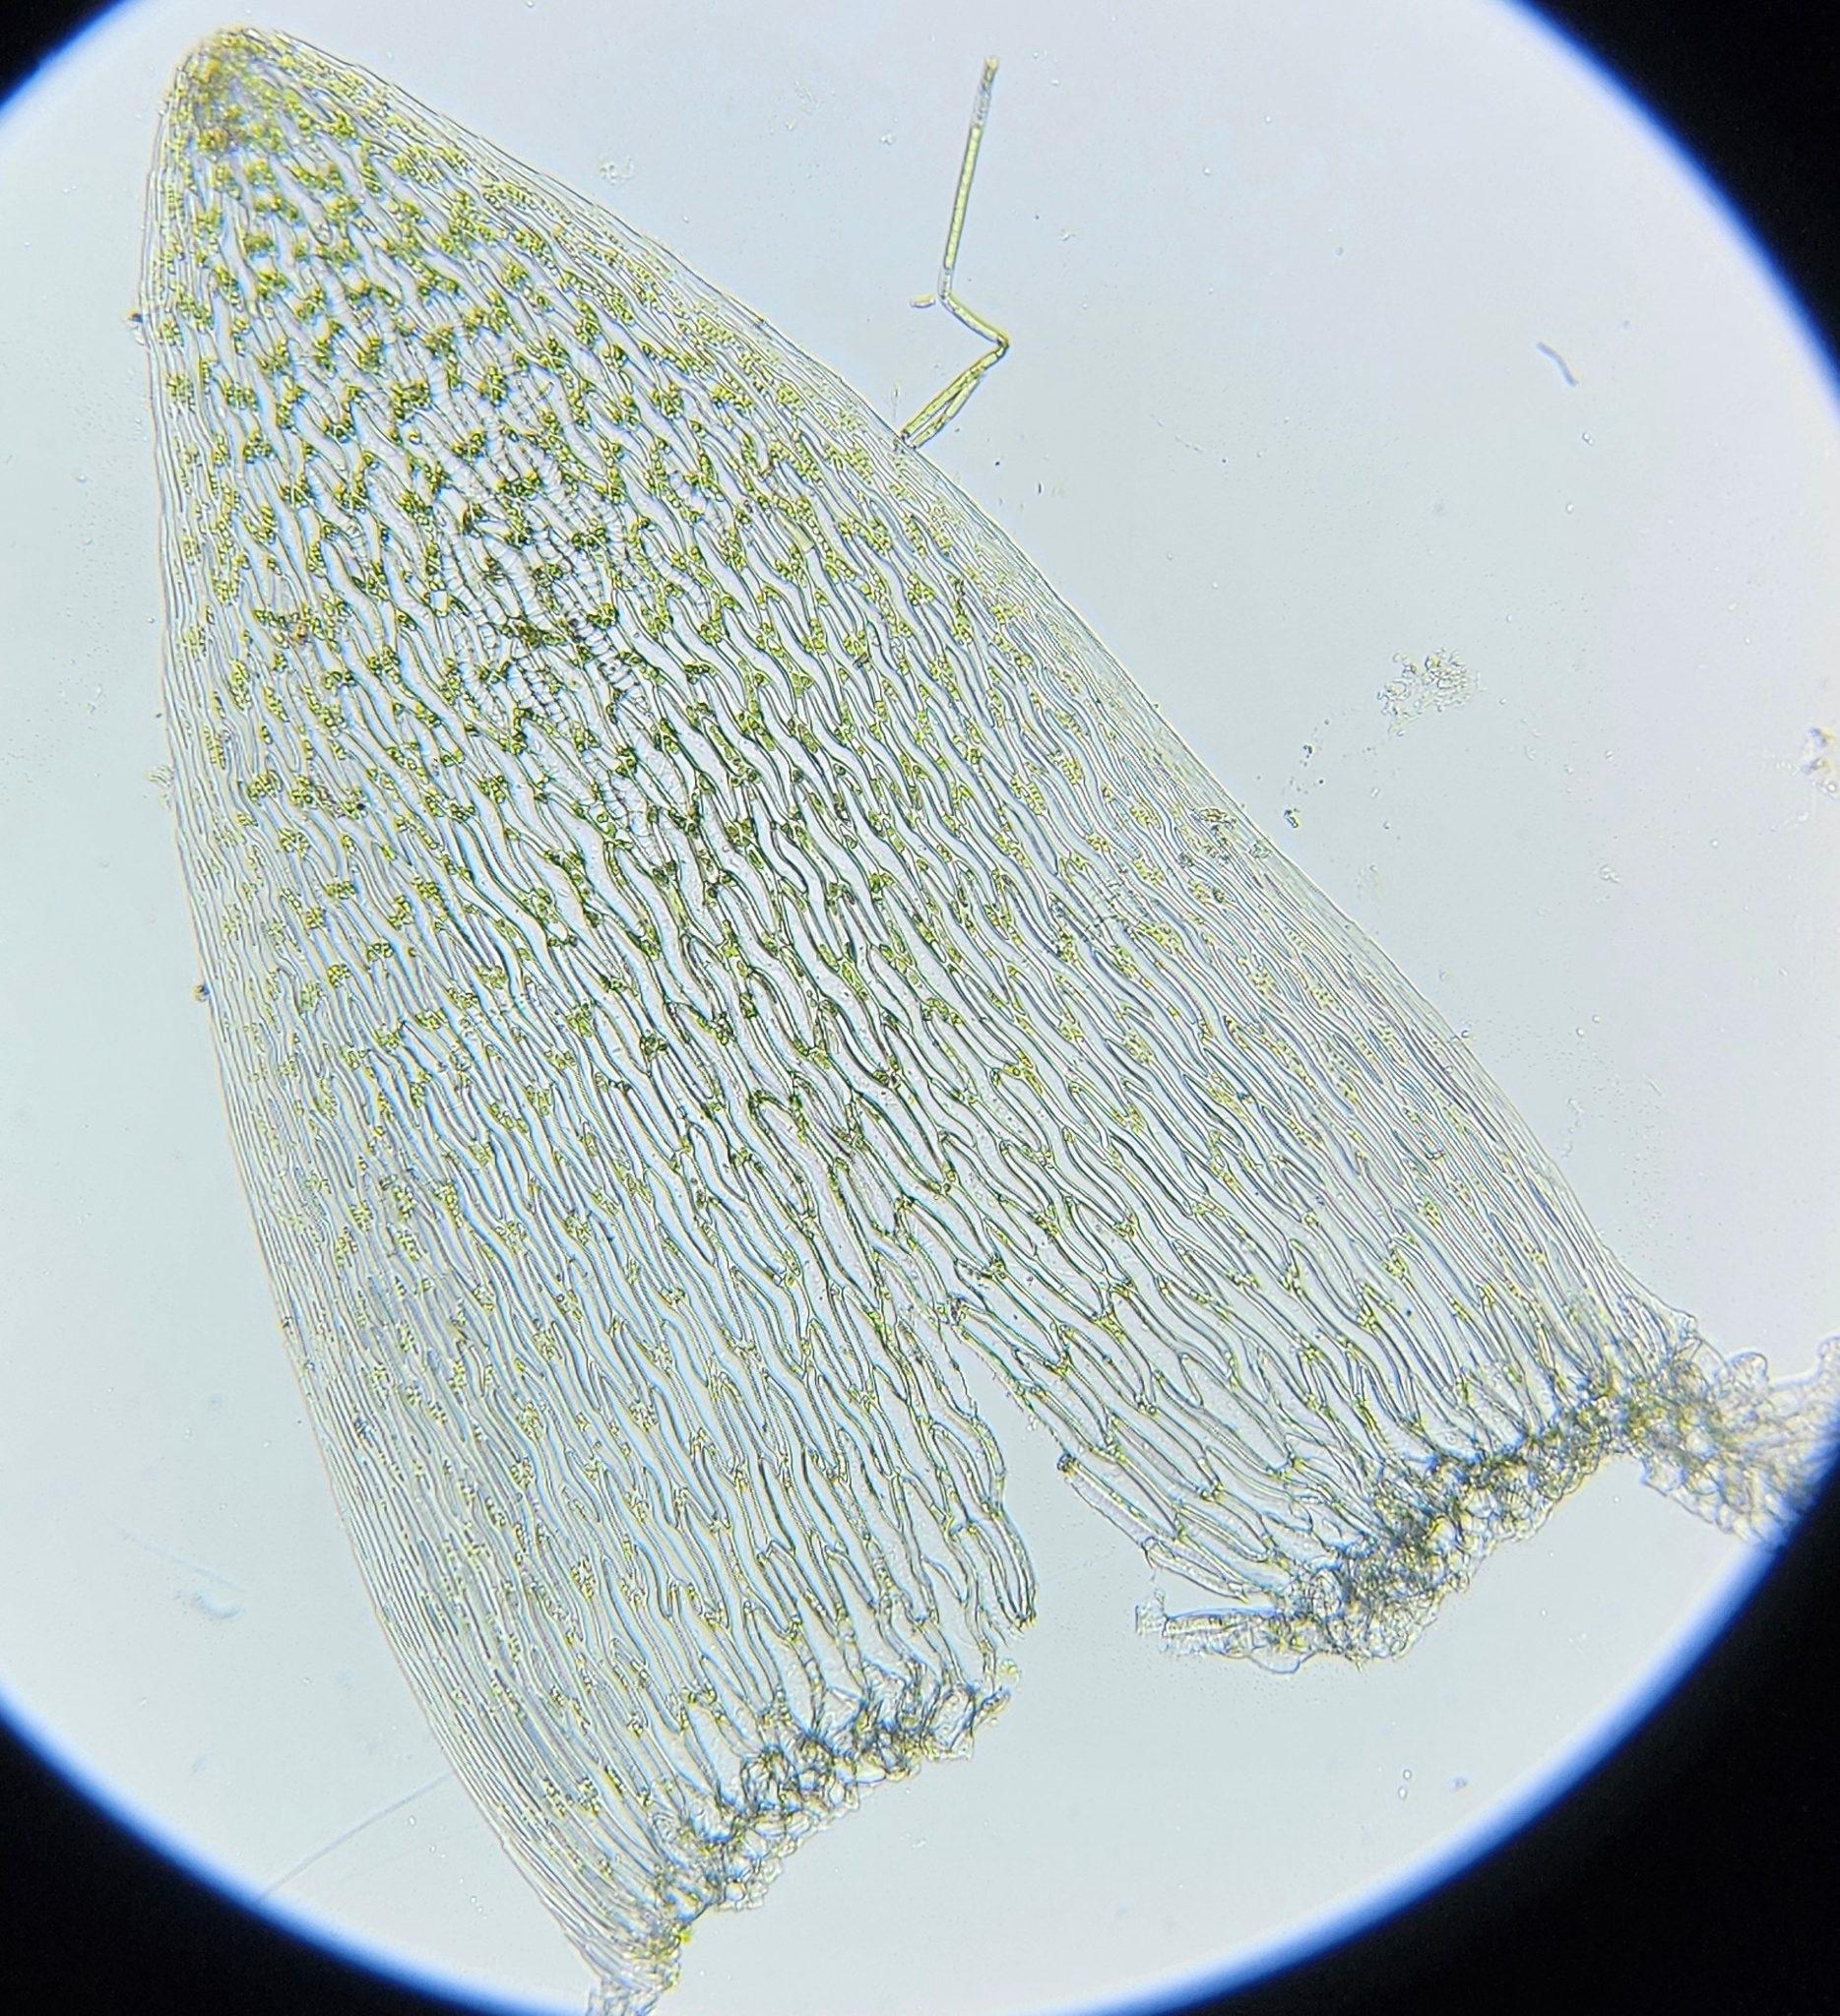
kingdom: Plantae
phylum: Bryophyta
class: Sphagnopsida
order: Sphagnales
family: Sphagnaceae
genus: Sphagnum
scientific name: Sphagnum cuspidatum
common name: Feathery peat moss
